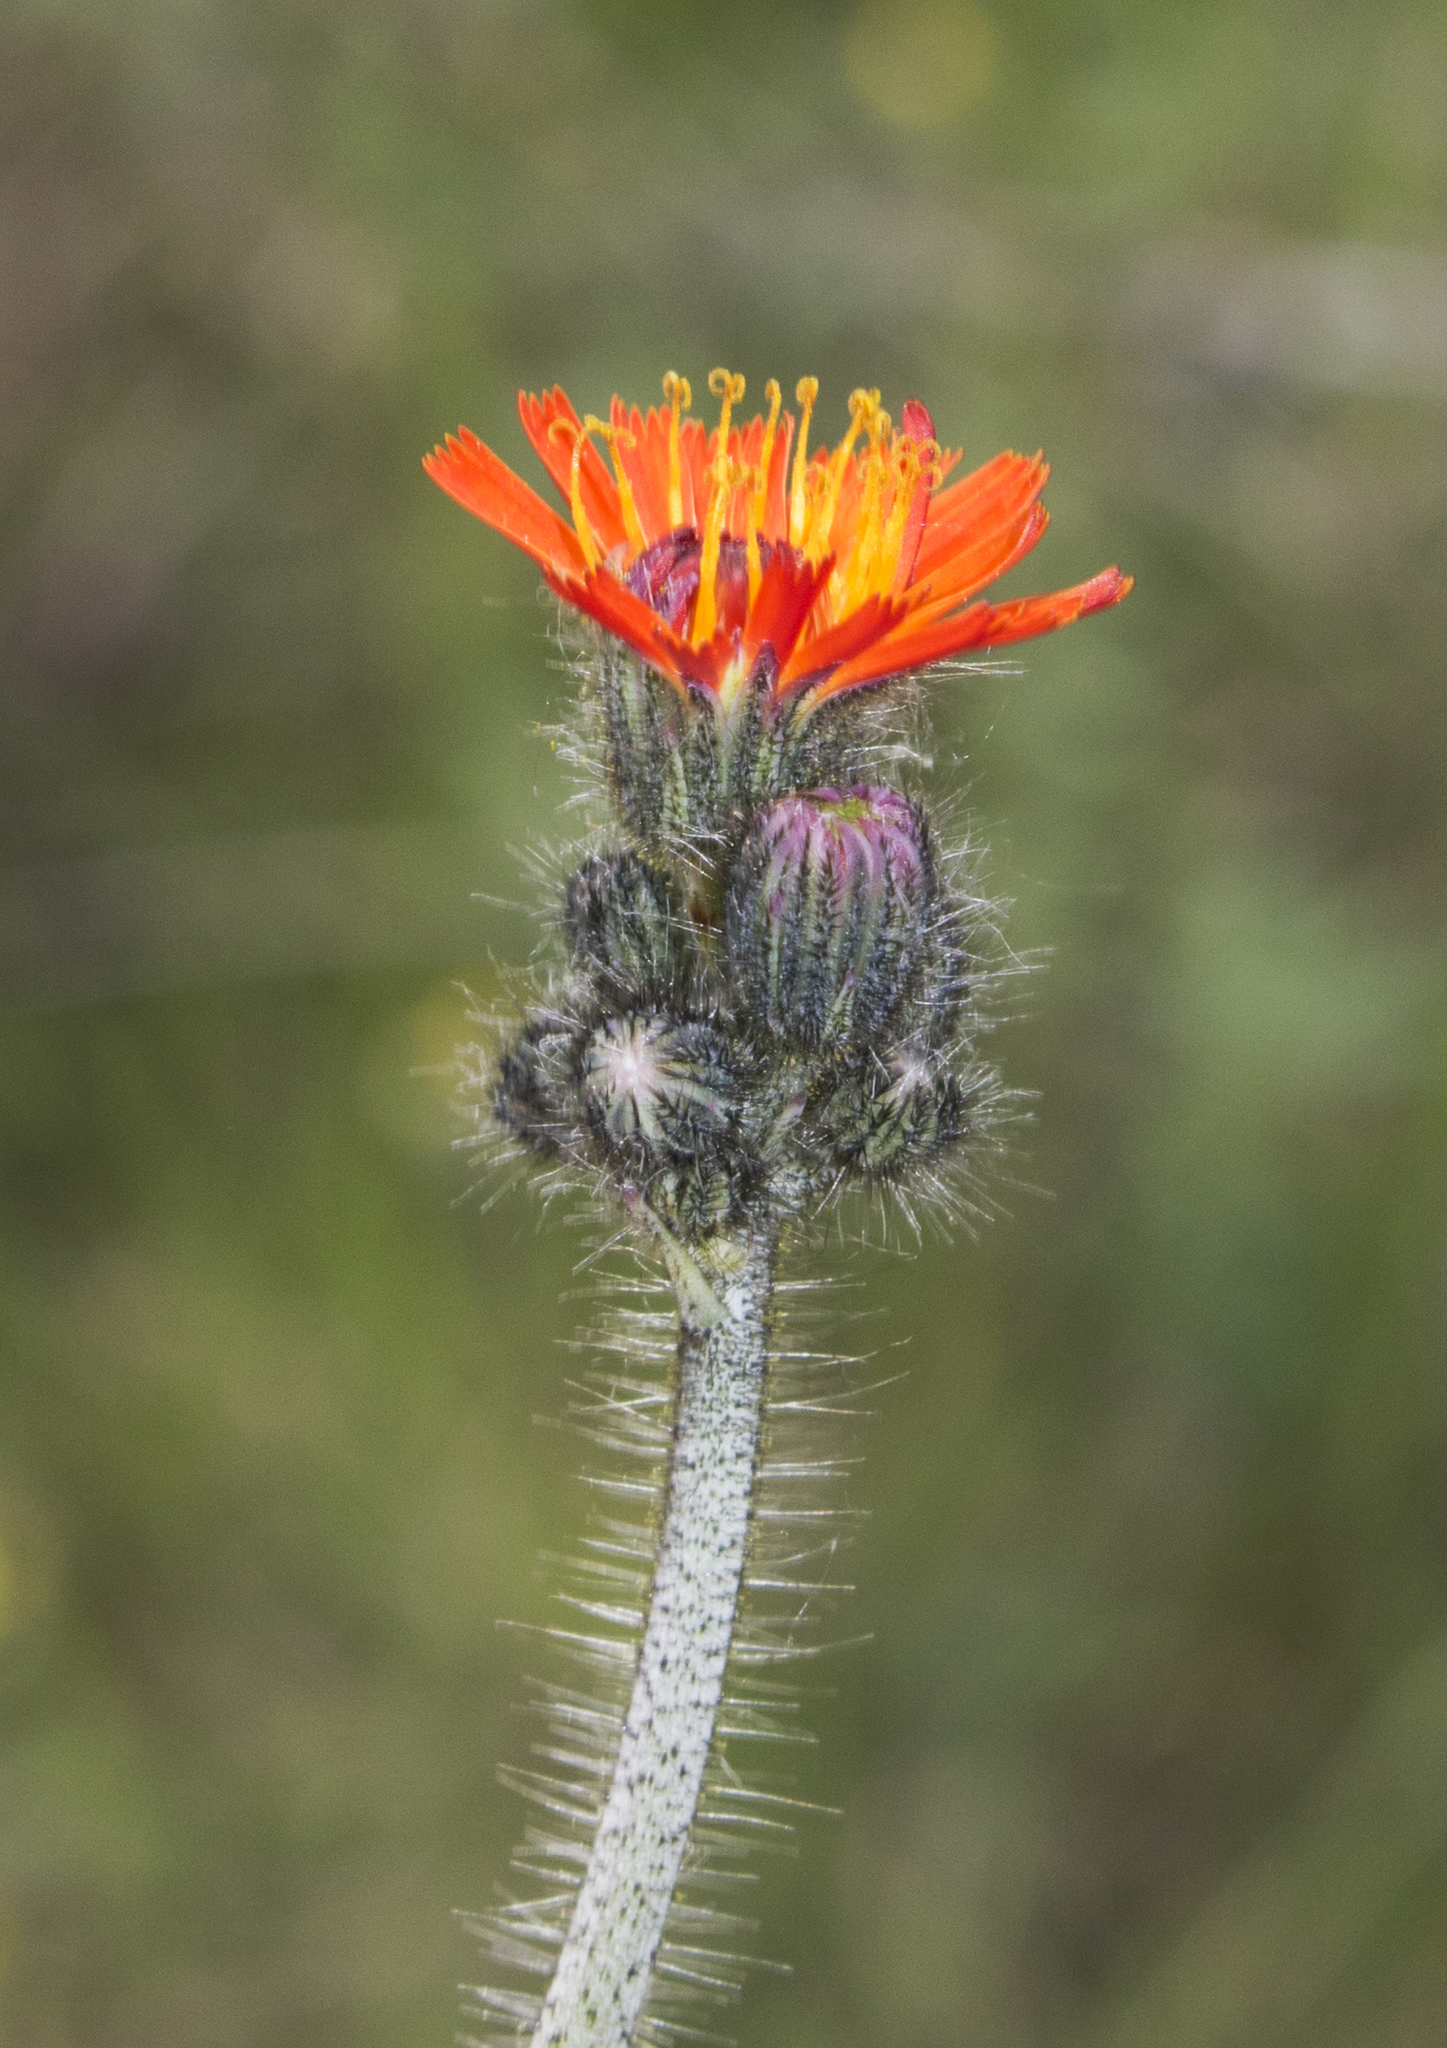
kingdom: Plantae
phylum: Tracheophyta
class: Magnoliopsida
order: Asterales
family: Asteraceae
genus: Pilosella
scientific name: Pilosella aurantiaca
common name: Fox-and-cubs
